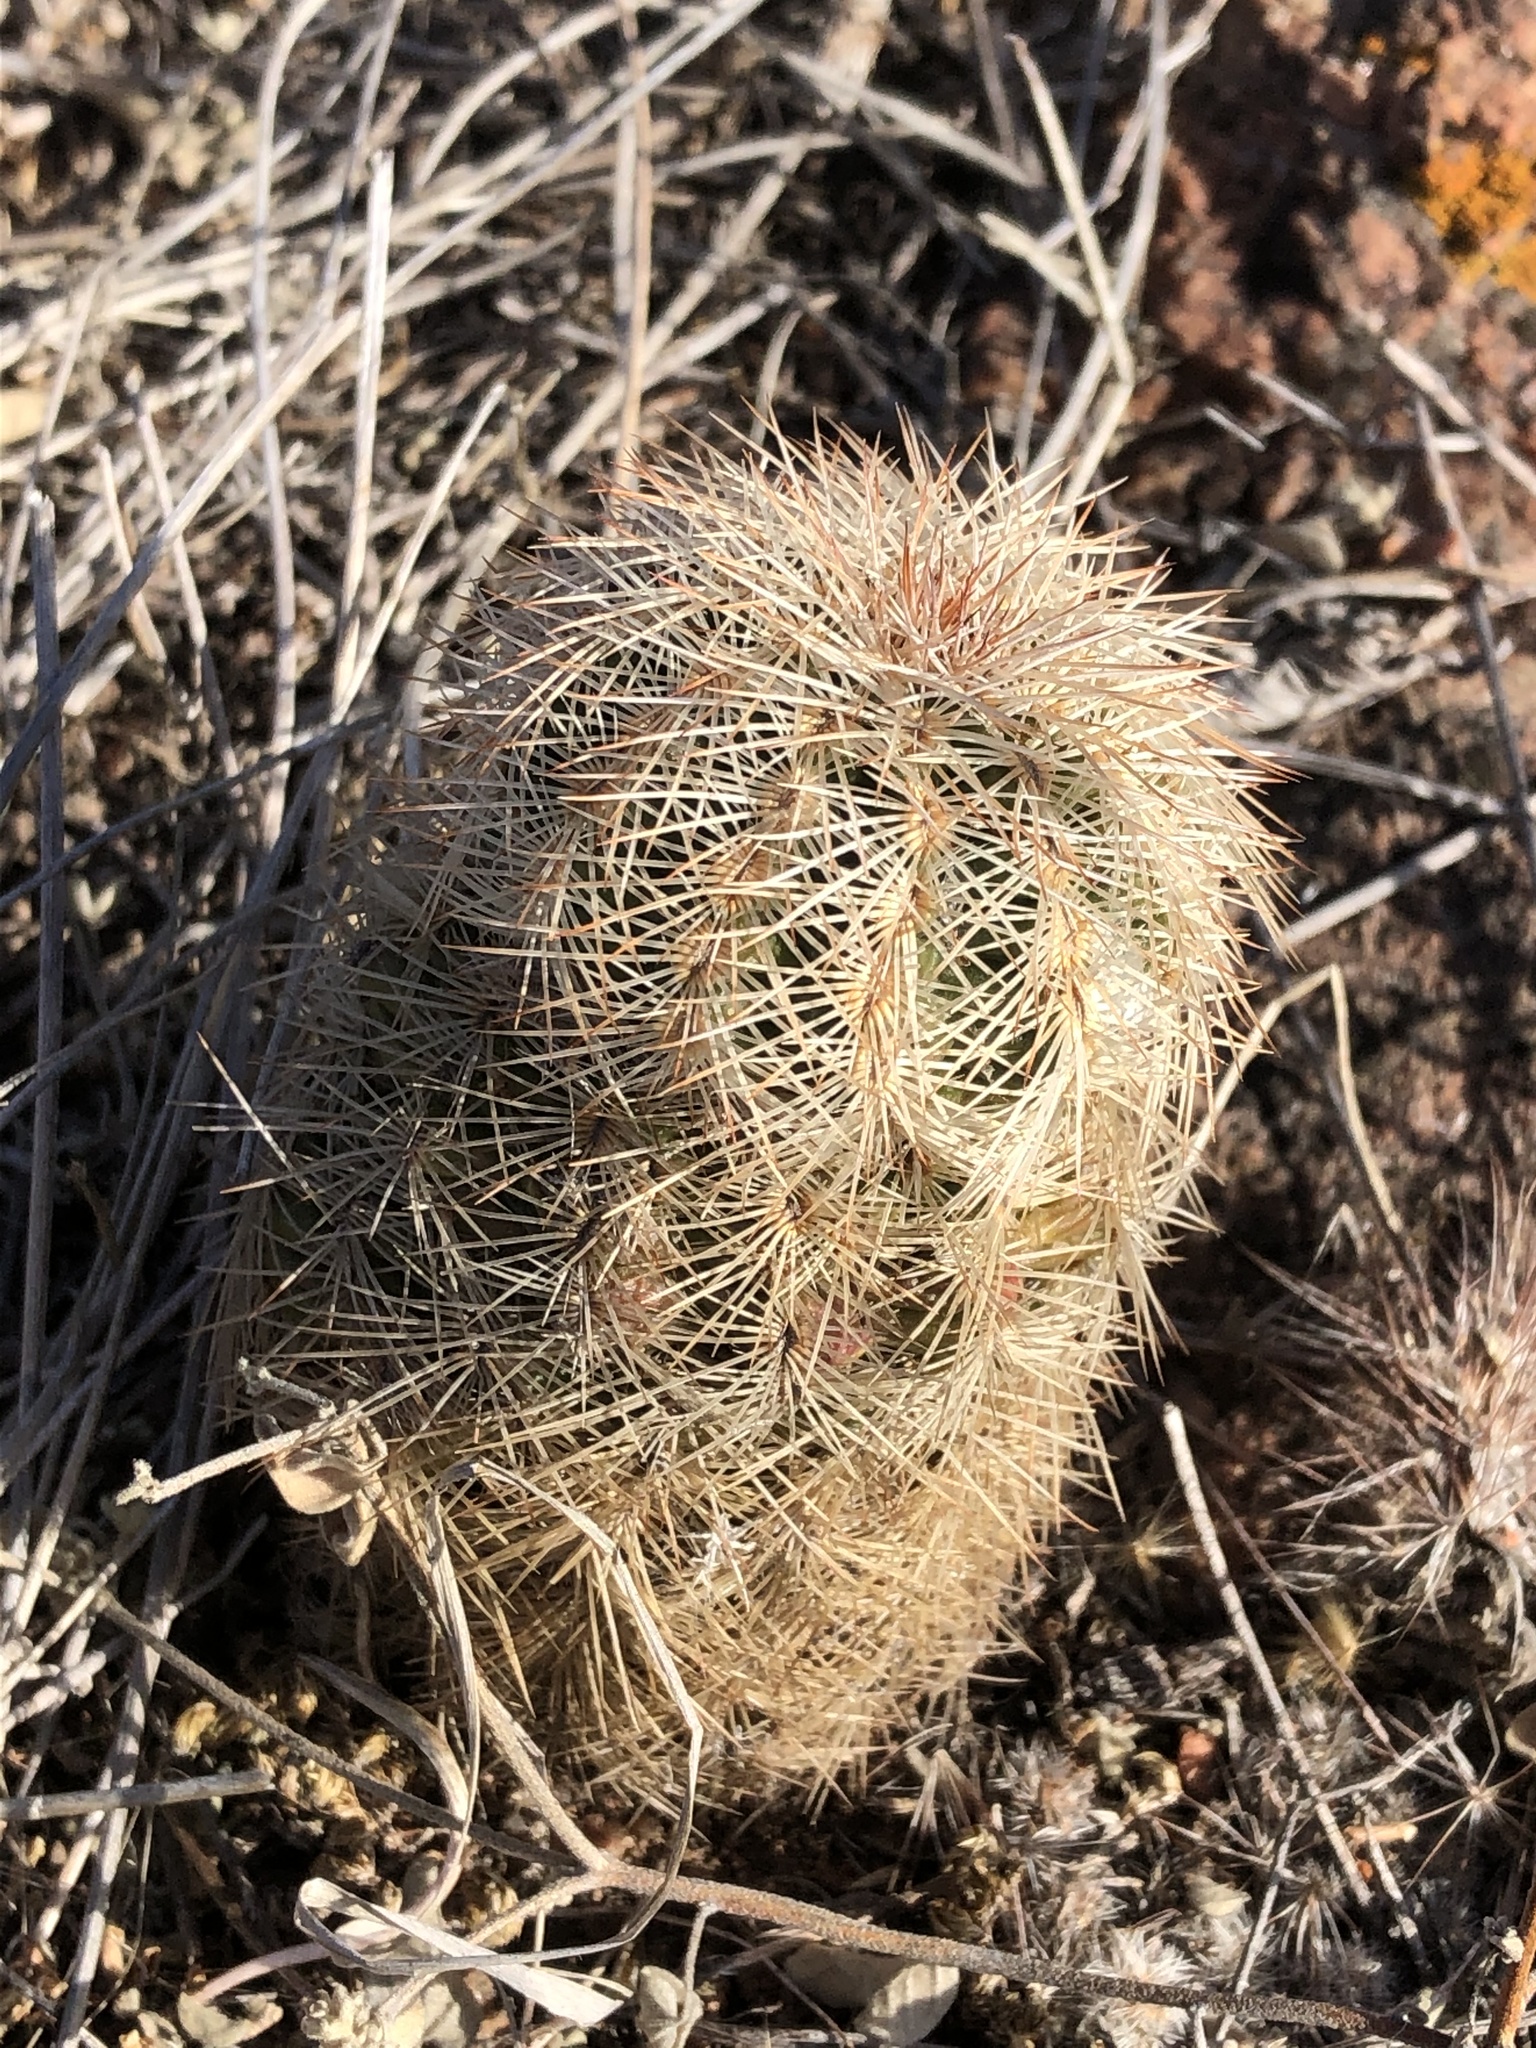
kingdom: Plantae
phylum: Tracheophyta
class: Magnoliopsida
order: Caryophyllales
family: Cactaceae
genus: Echinocereus
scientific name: Echinocereus reichenbachii
